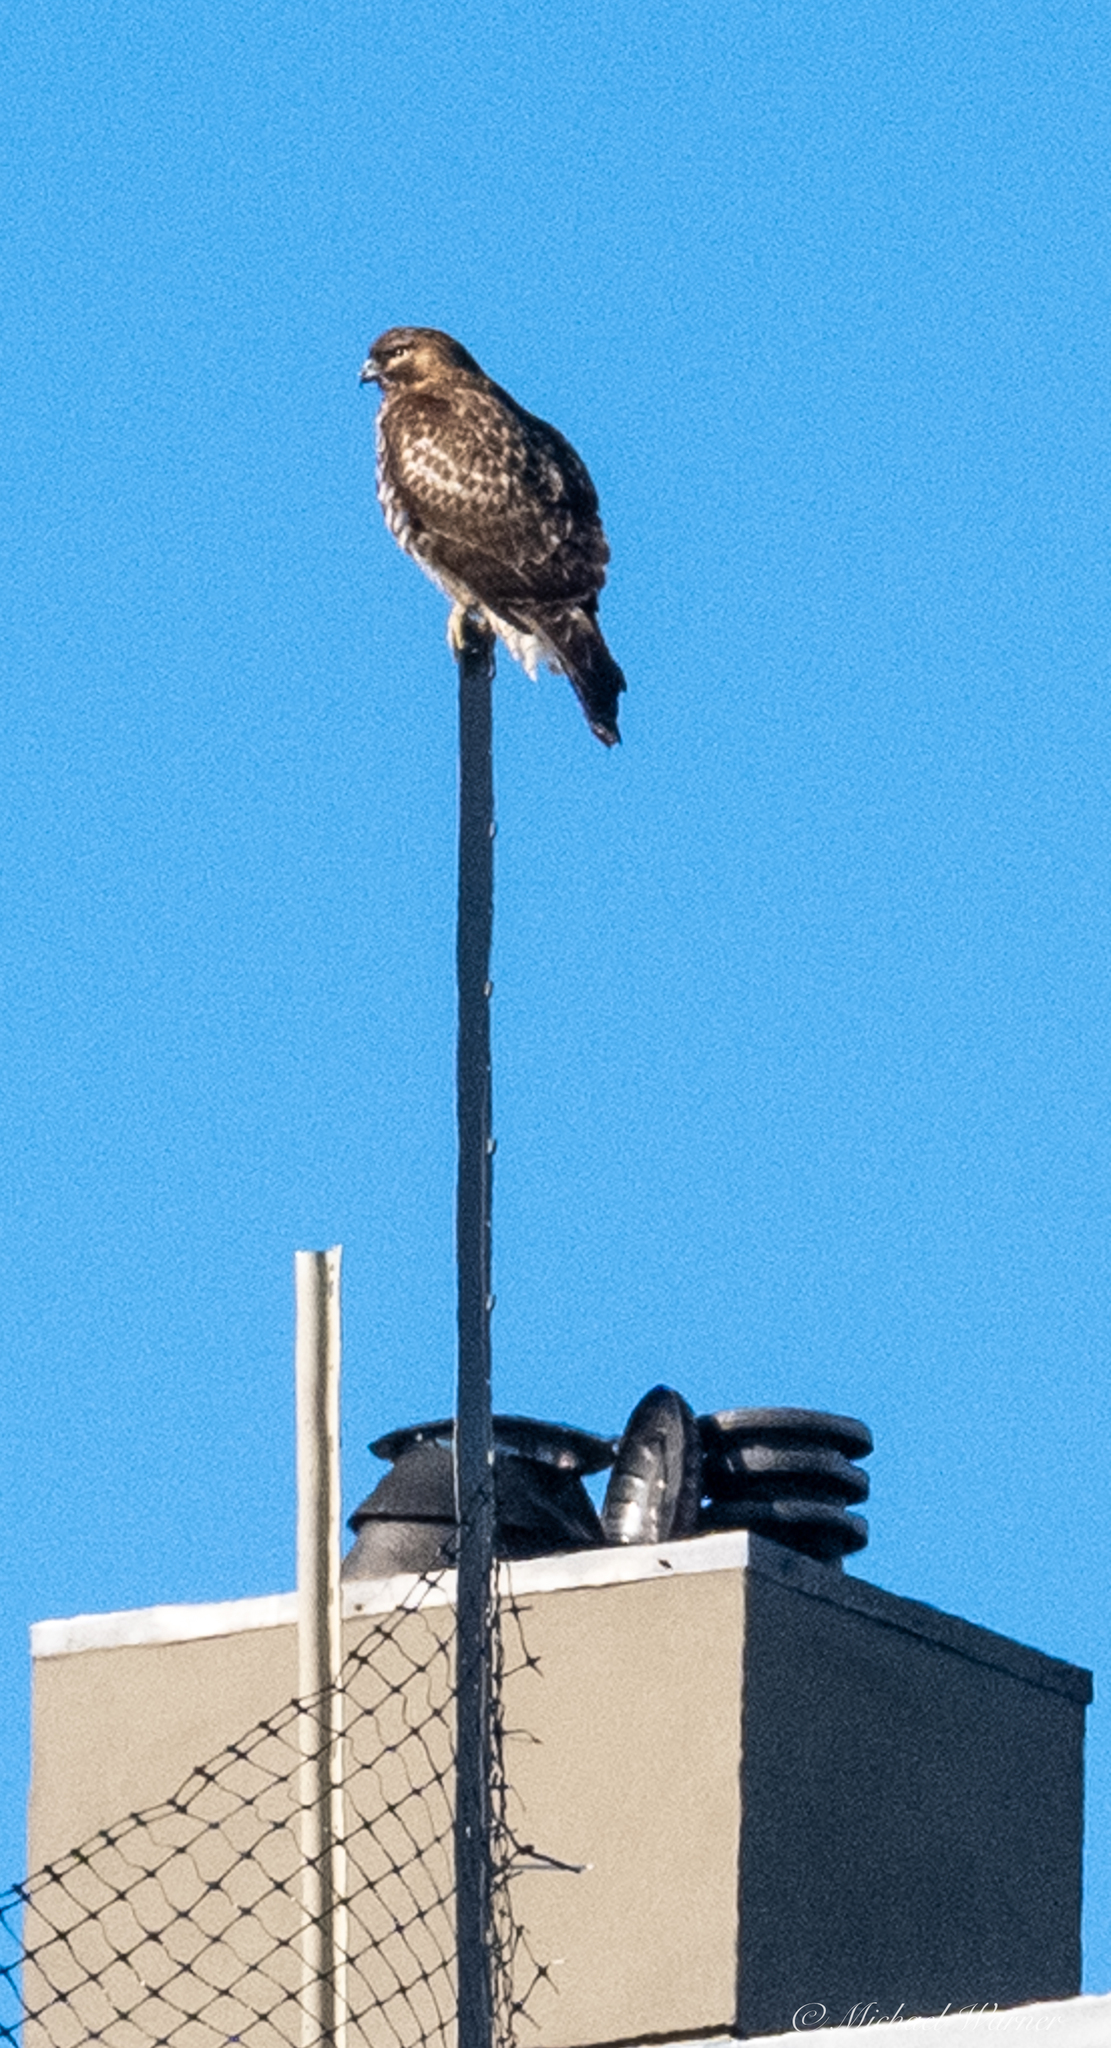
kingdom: Animalia
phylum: Chordata
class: Aves
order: Accipitriformes
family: Accipitridae
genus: Buteo
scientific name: Buteo jamaicensis
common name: Red-tailed hawk
